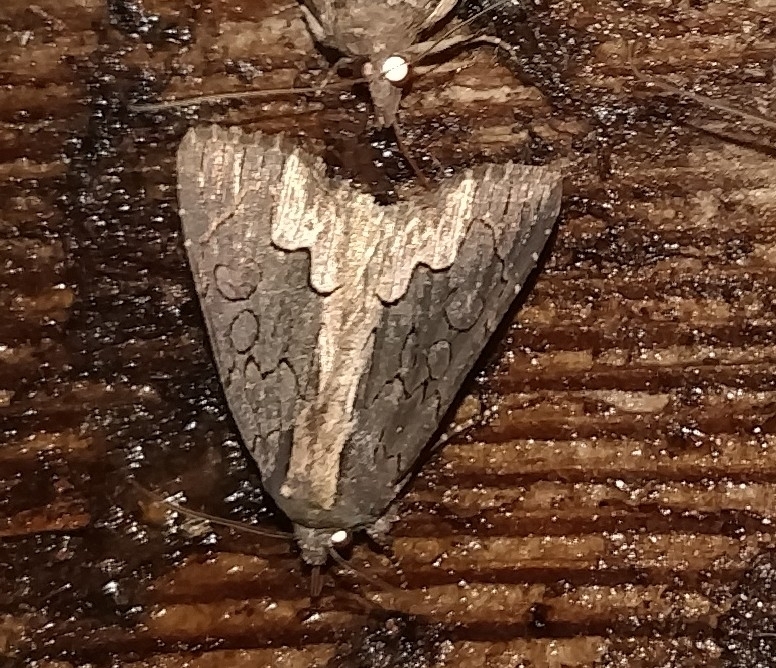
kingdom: Animalia
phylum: Arthropoda
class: Insecta
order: Lepidoptera
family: Noctuidae
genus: Dypterygia
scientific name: Dypterygia rozmani
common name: American bird's-wing
